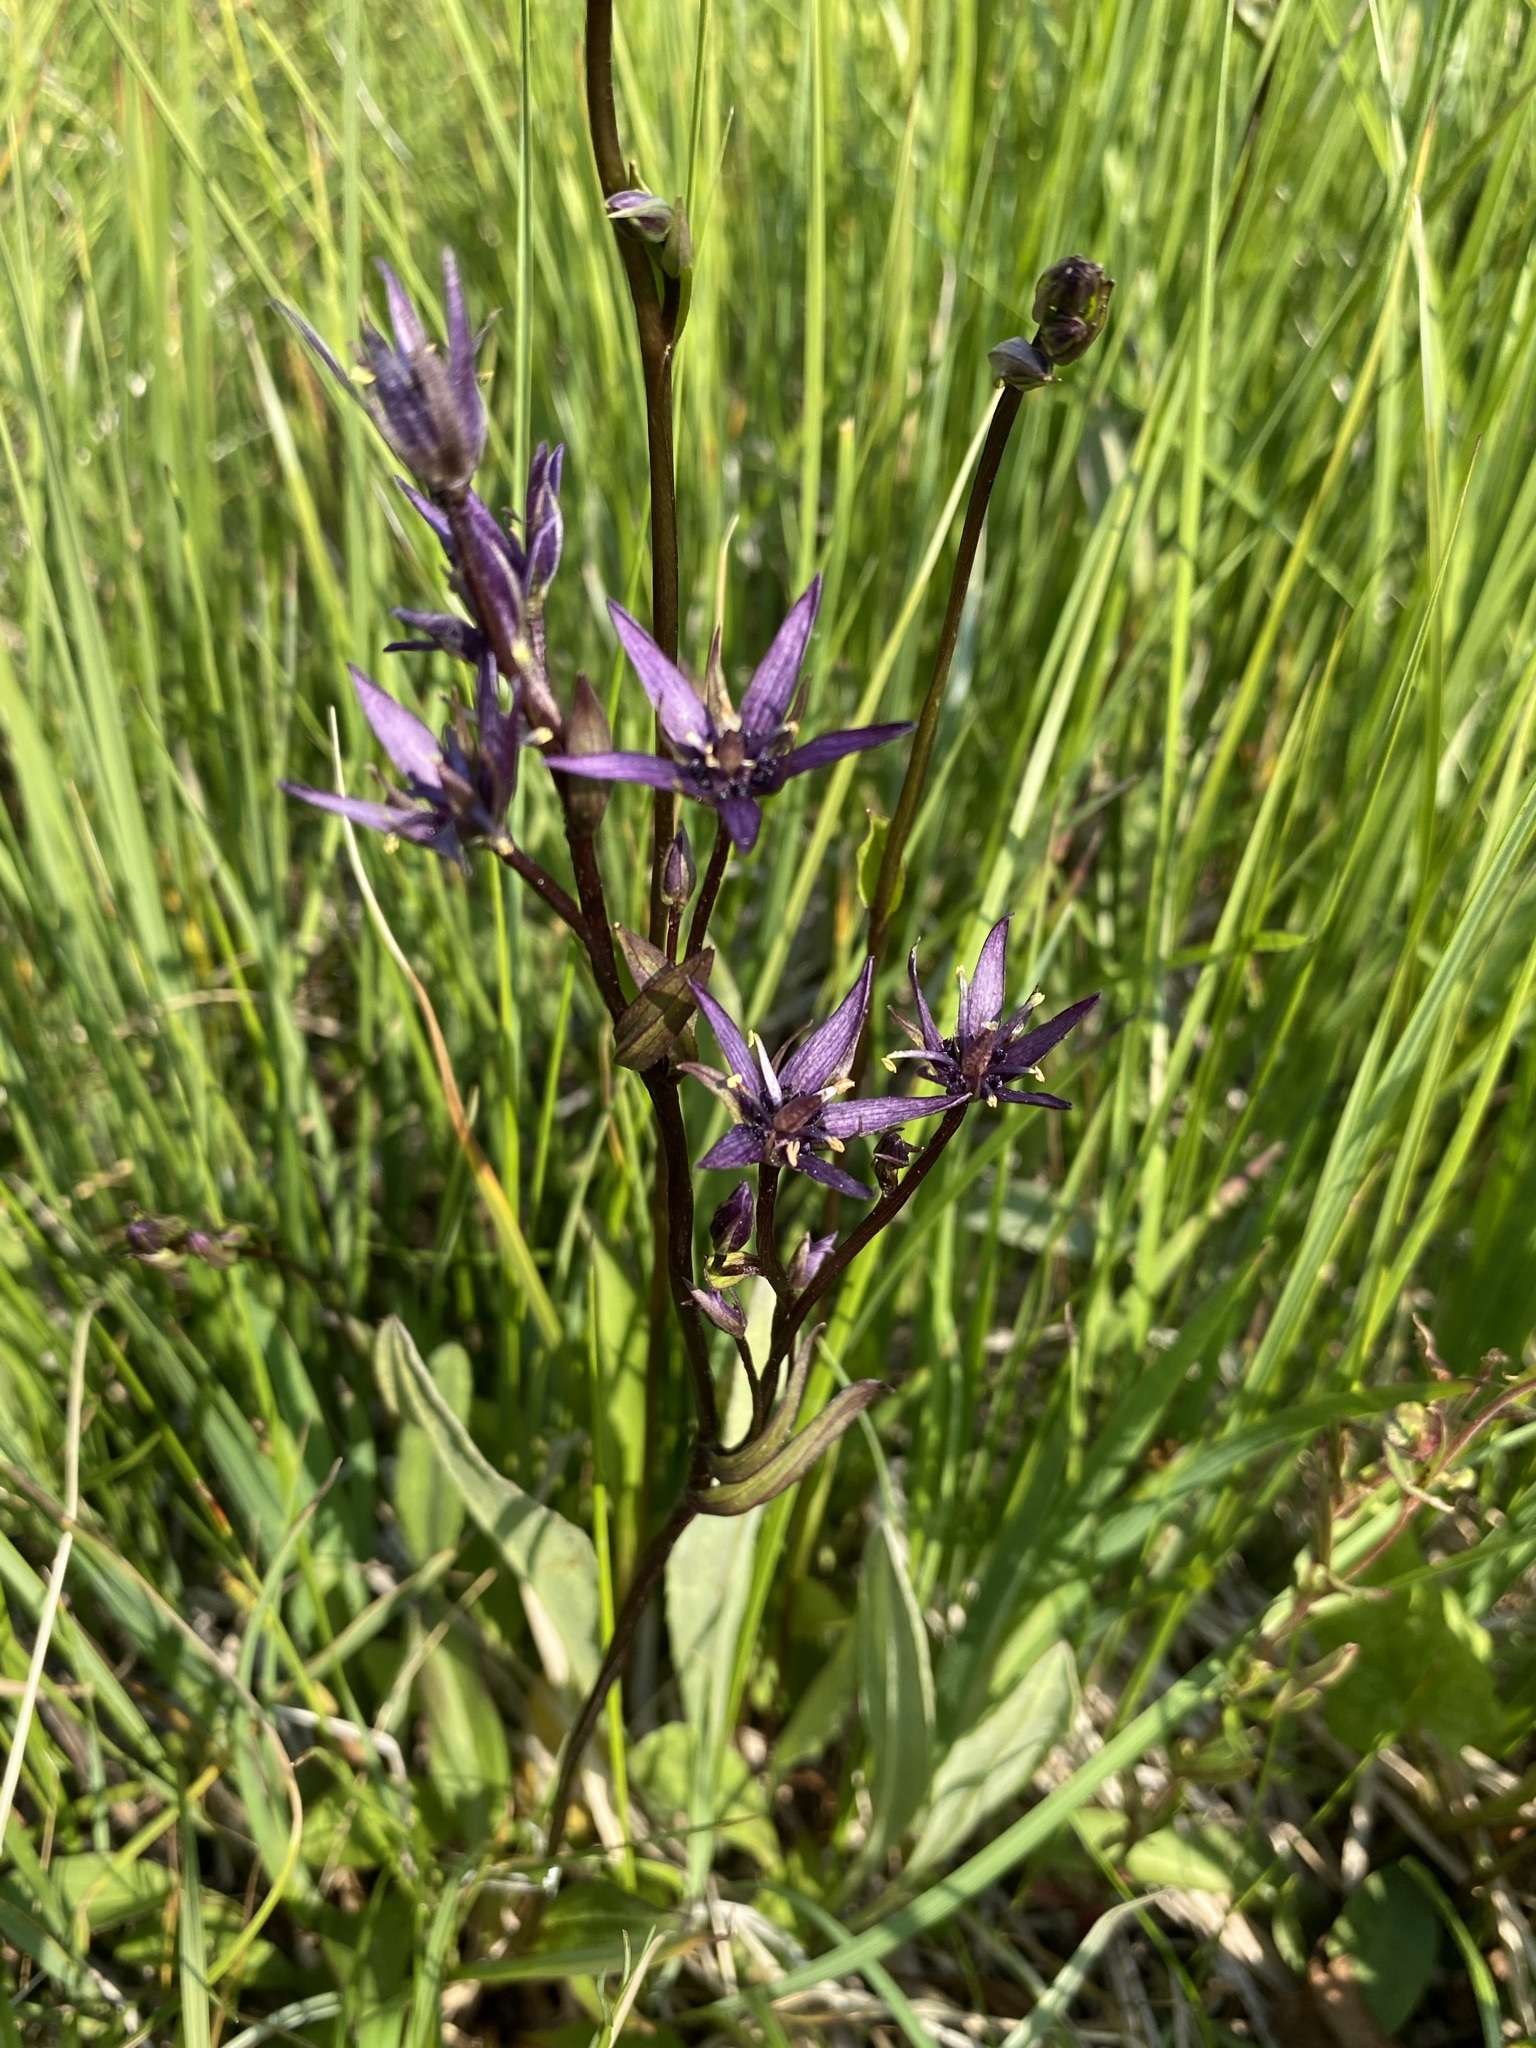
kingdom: Plantae
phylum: Tracheophyta
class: Magnoliopsida
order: Gentianales
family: Gentianaceae
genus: Swertia
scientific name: Swertia perennis
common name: Alpine bog swertia
